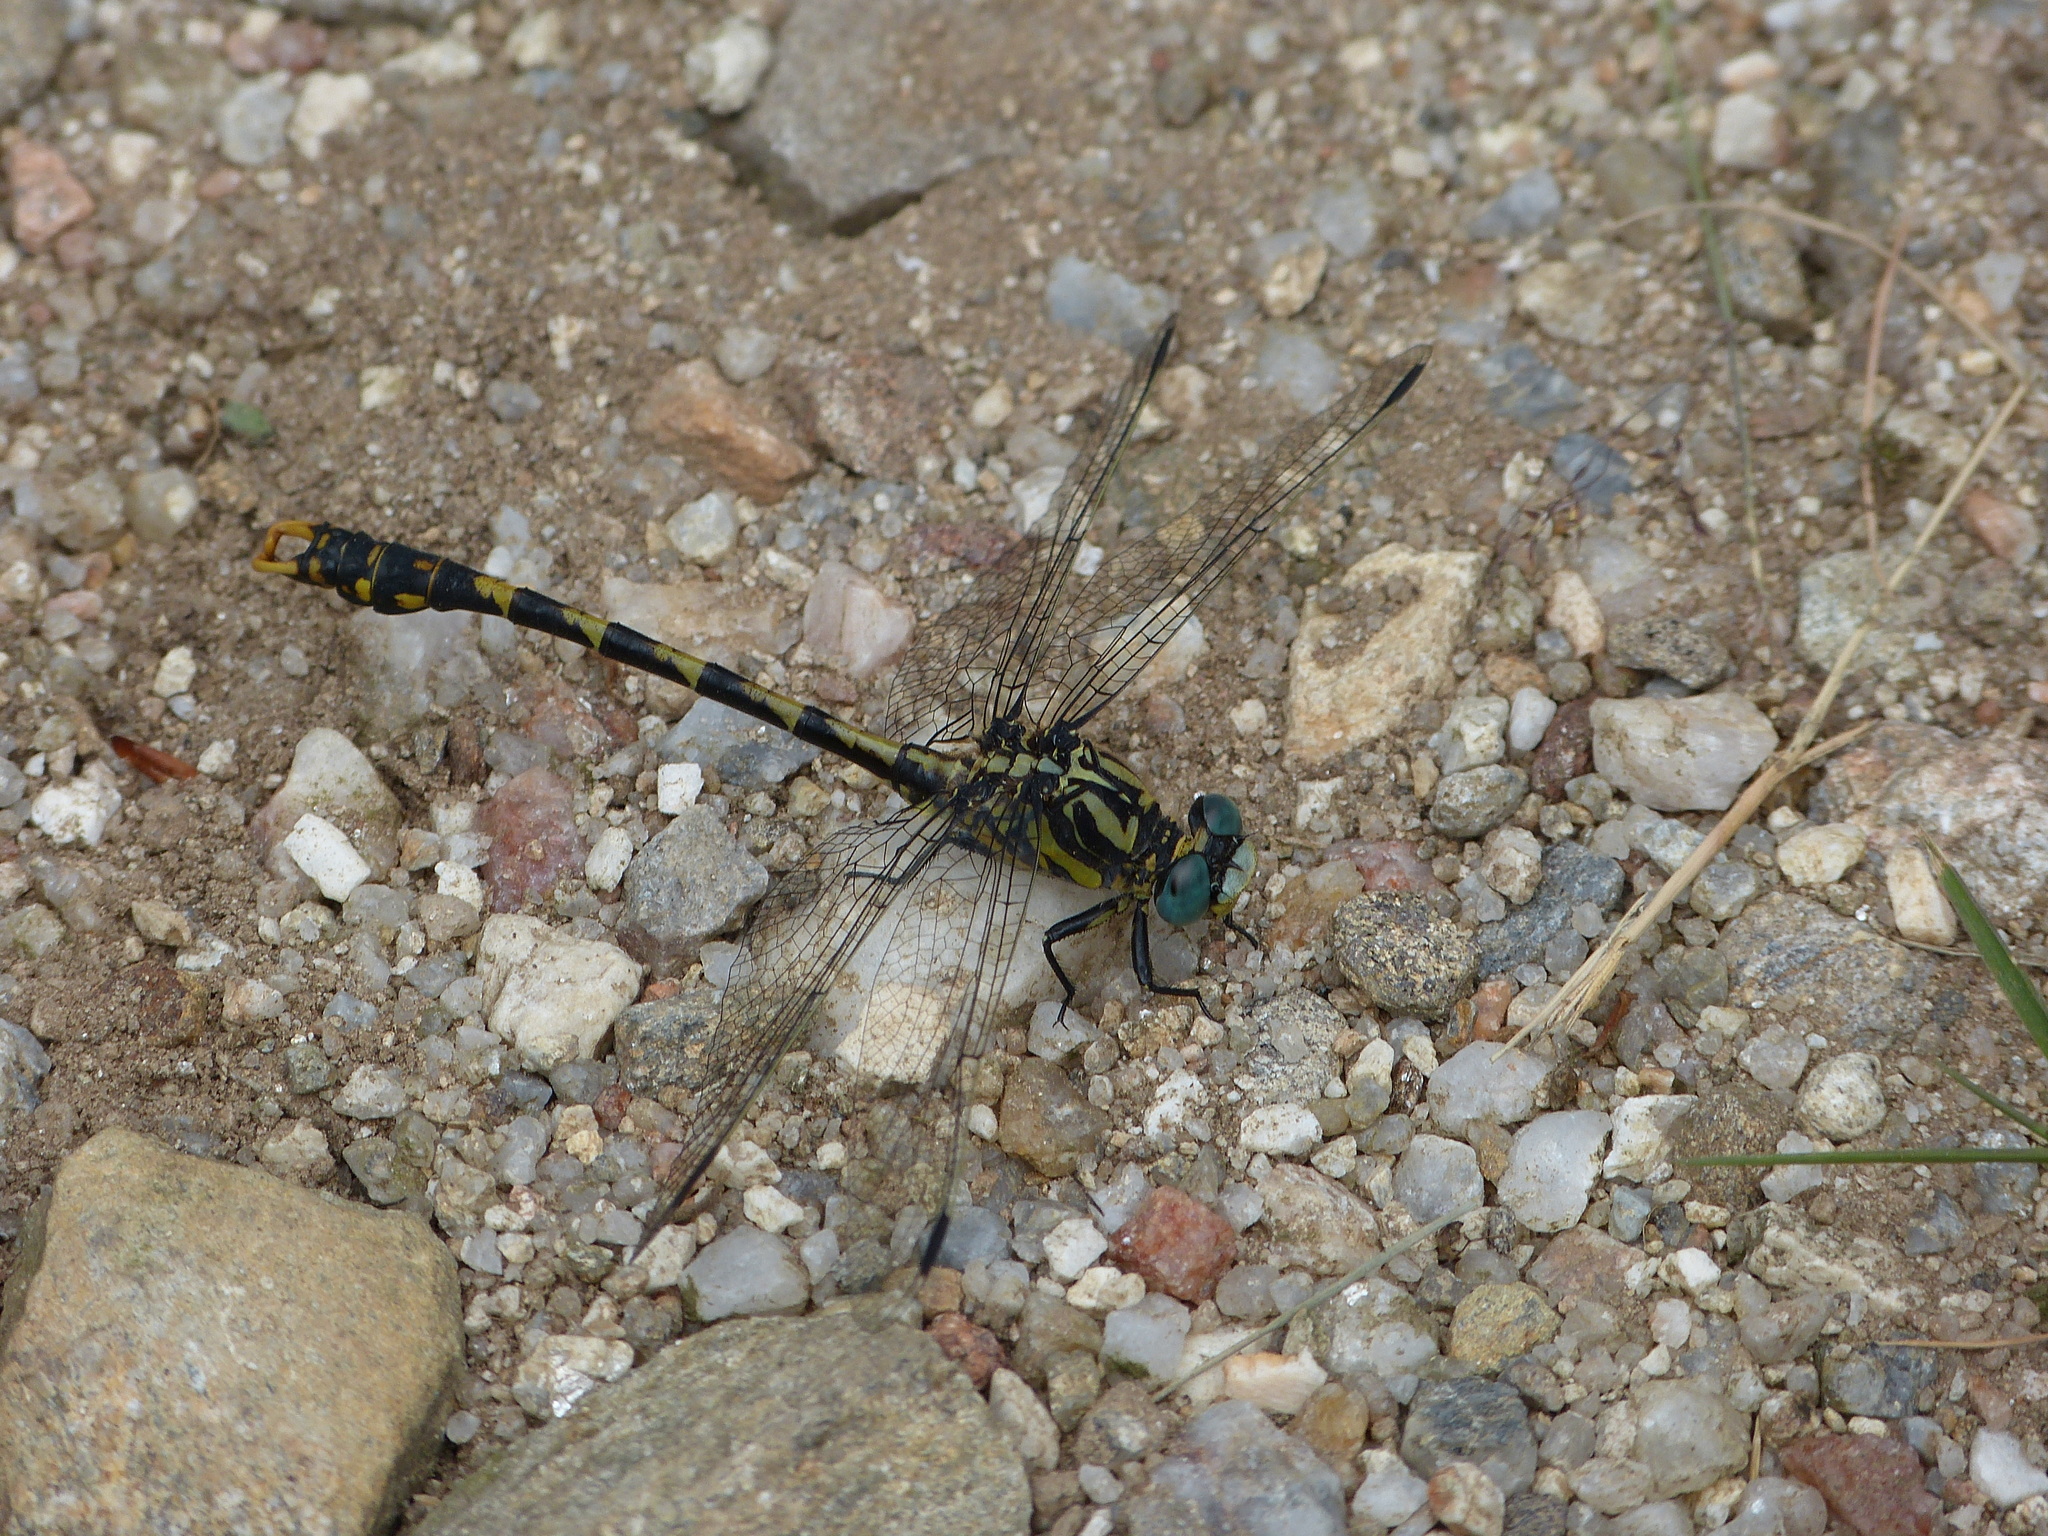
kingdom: Animalia
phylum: Arthropoda
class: Insecta
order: Odonata
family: Gomphidae
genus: Onychogomphus
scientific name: Onychogomphus uncatus
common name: Large pincertail
